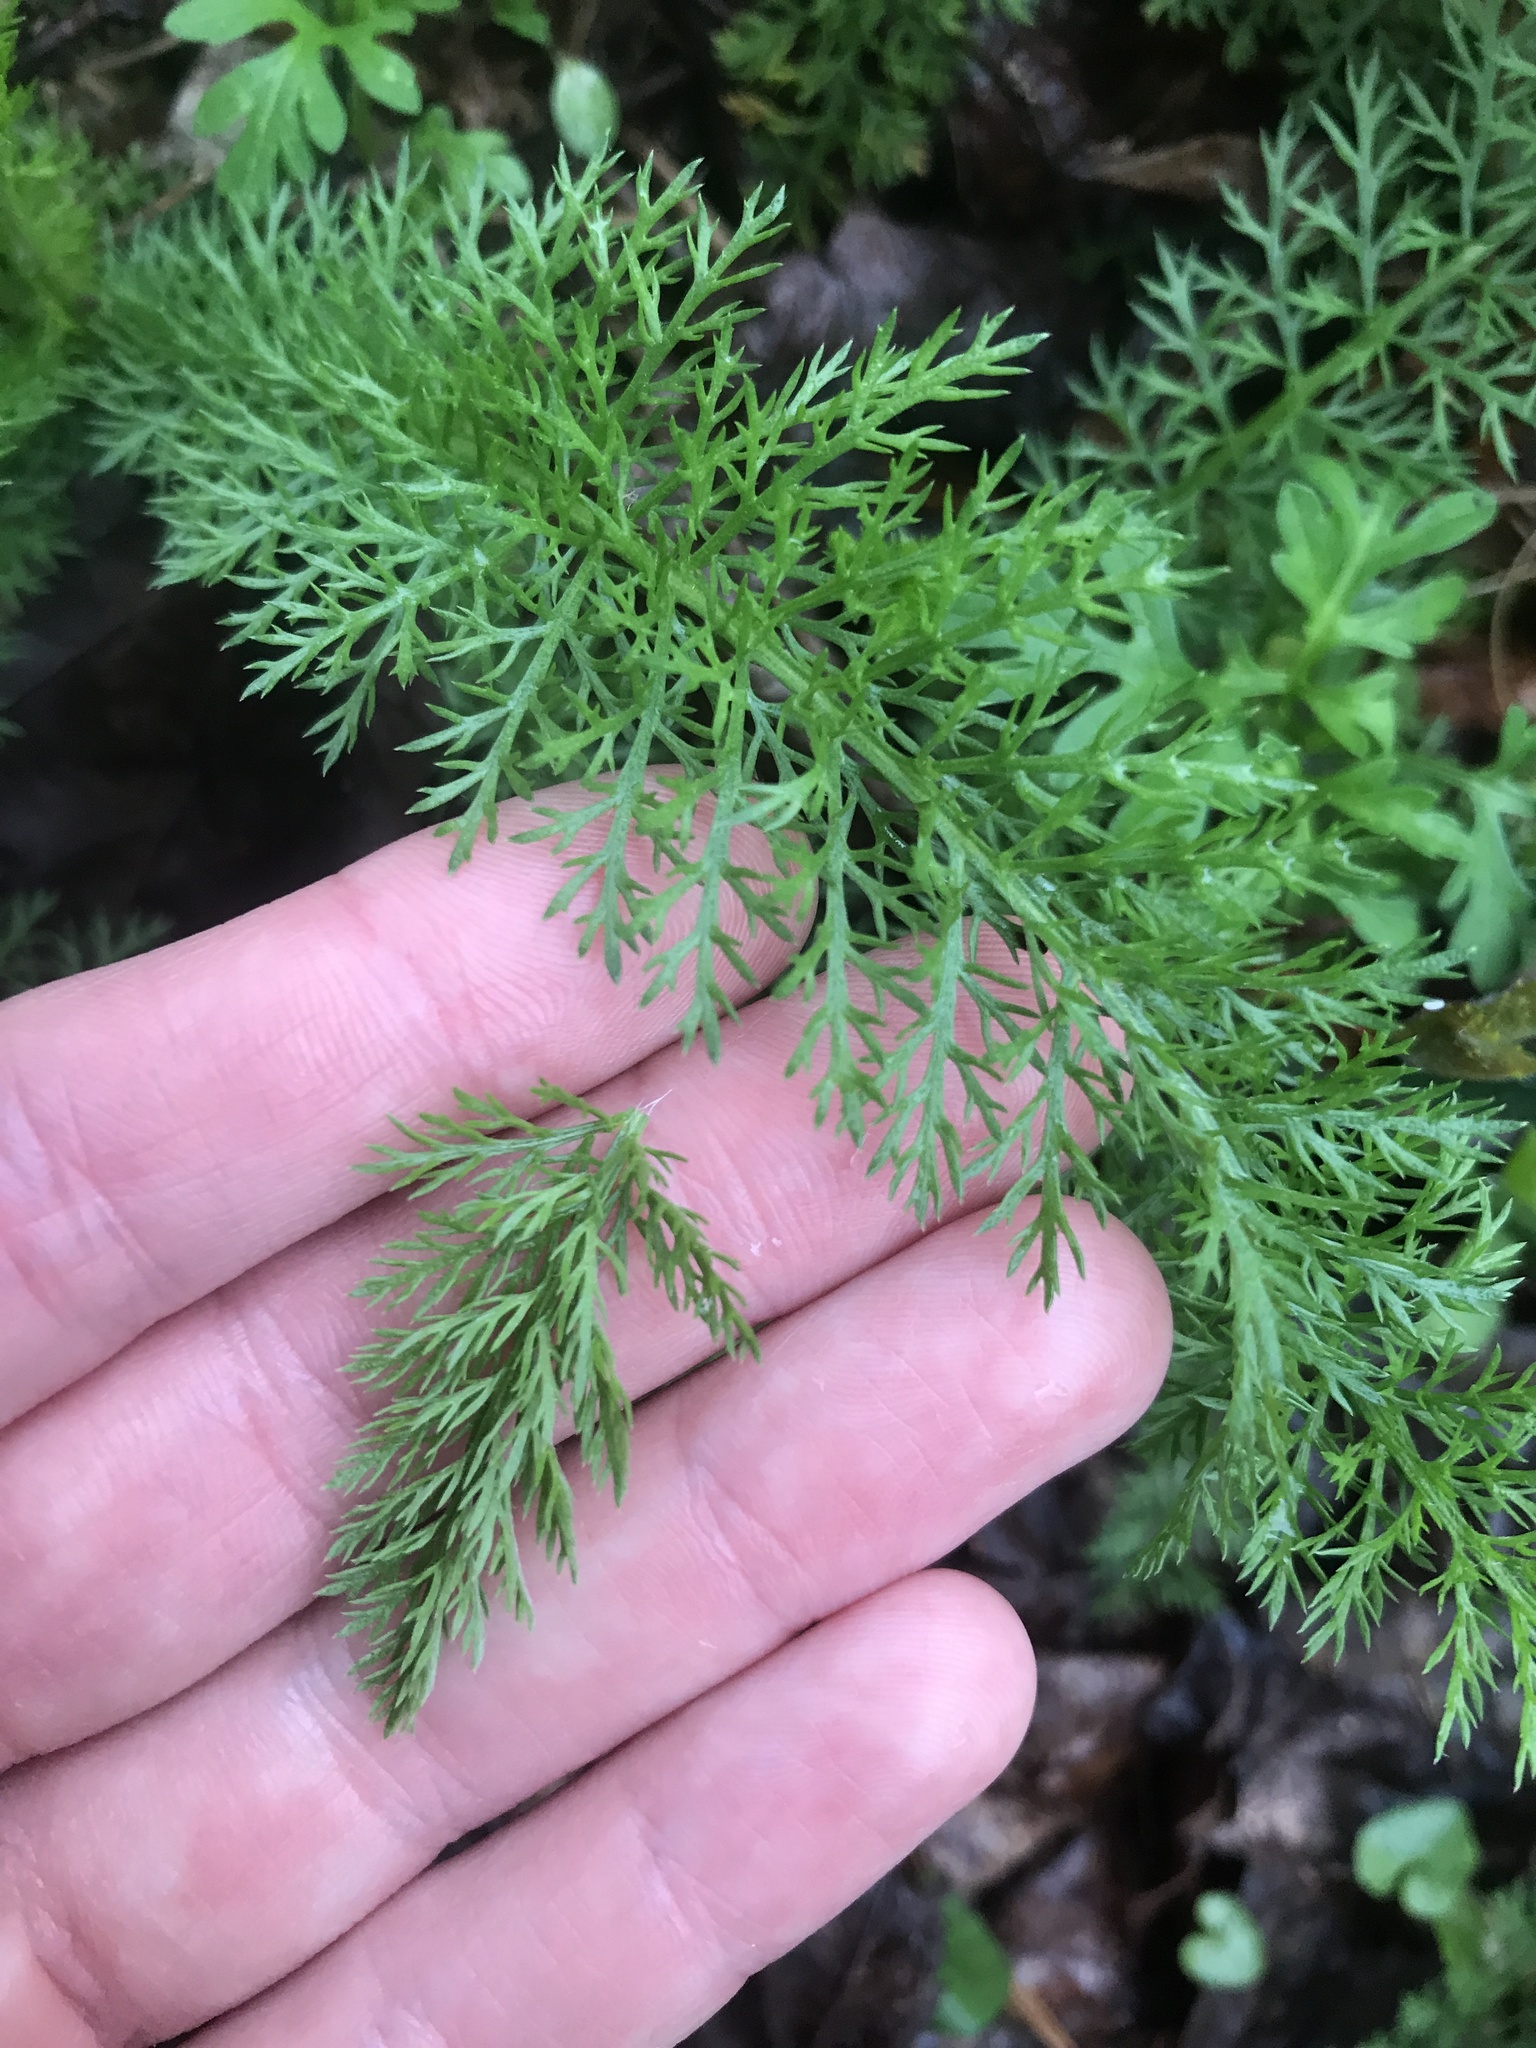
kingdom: Plantae
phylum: Tracheophyta
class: Magnoliopsida
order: Asterales
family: Asteraceae
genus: Achillea
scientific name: Achillea millefolium
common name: Yarrow
